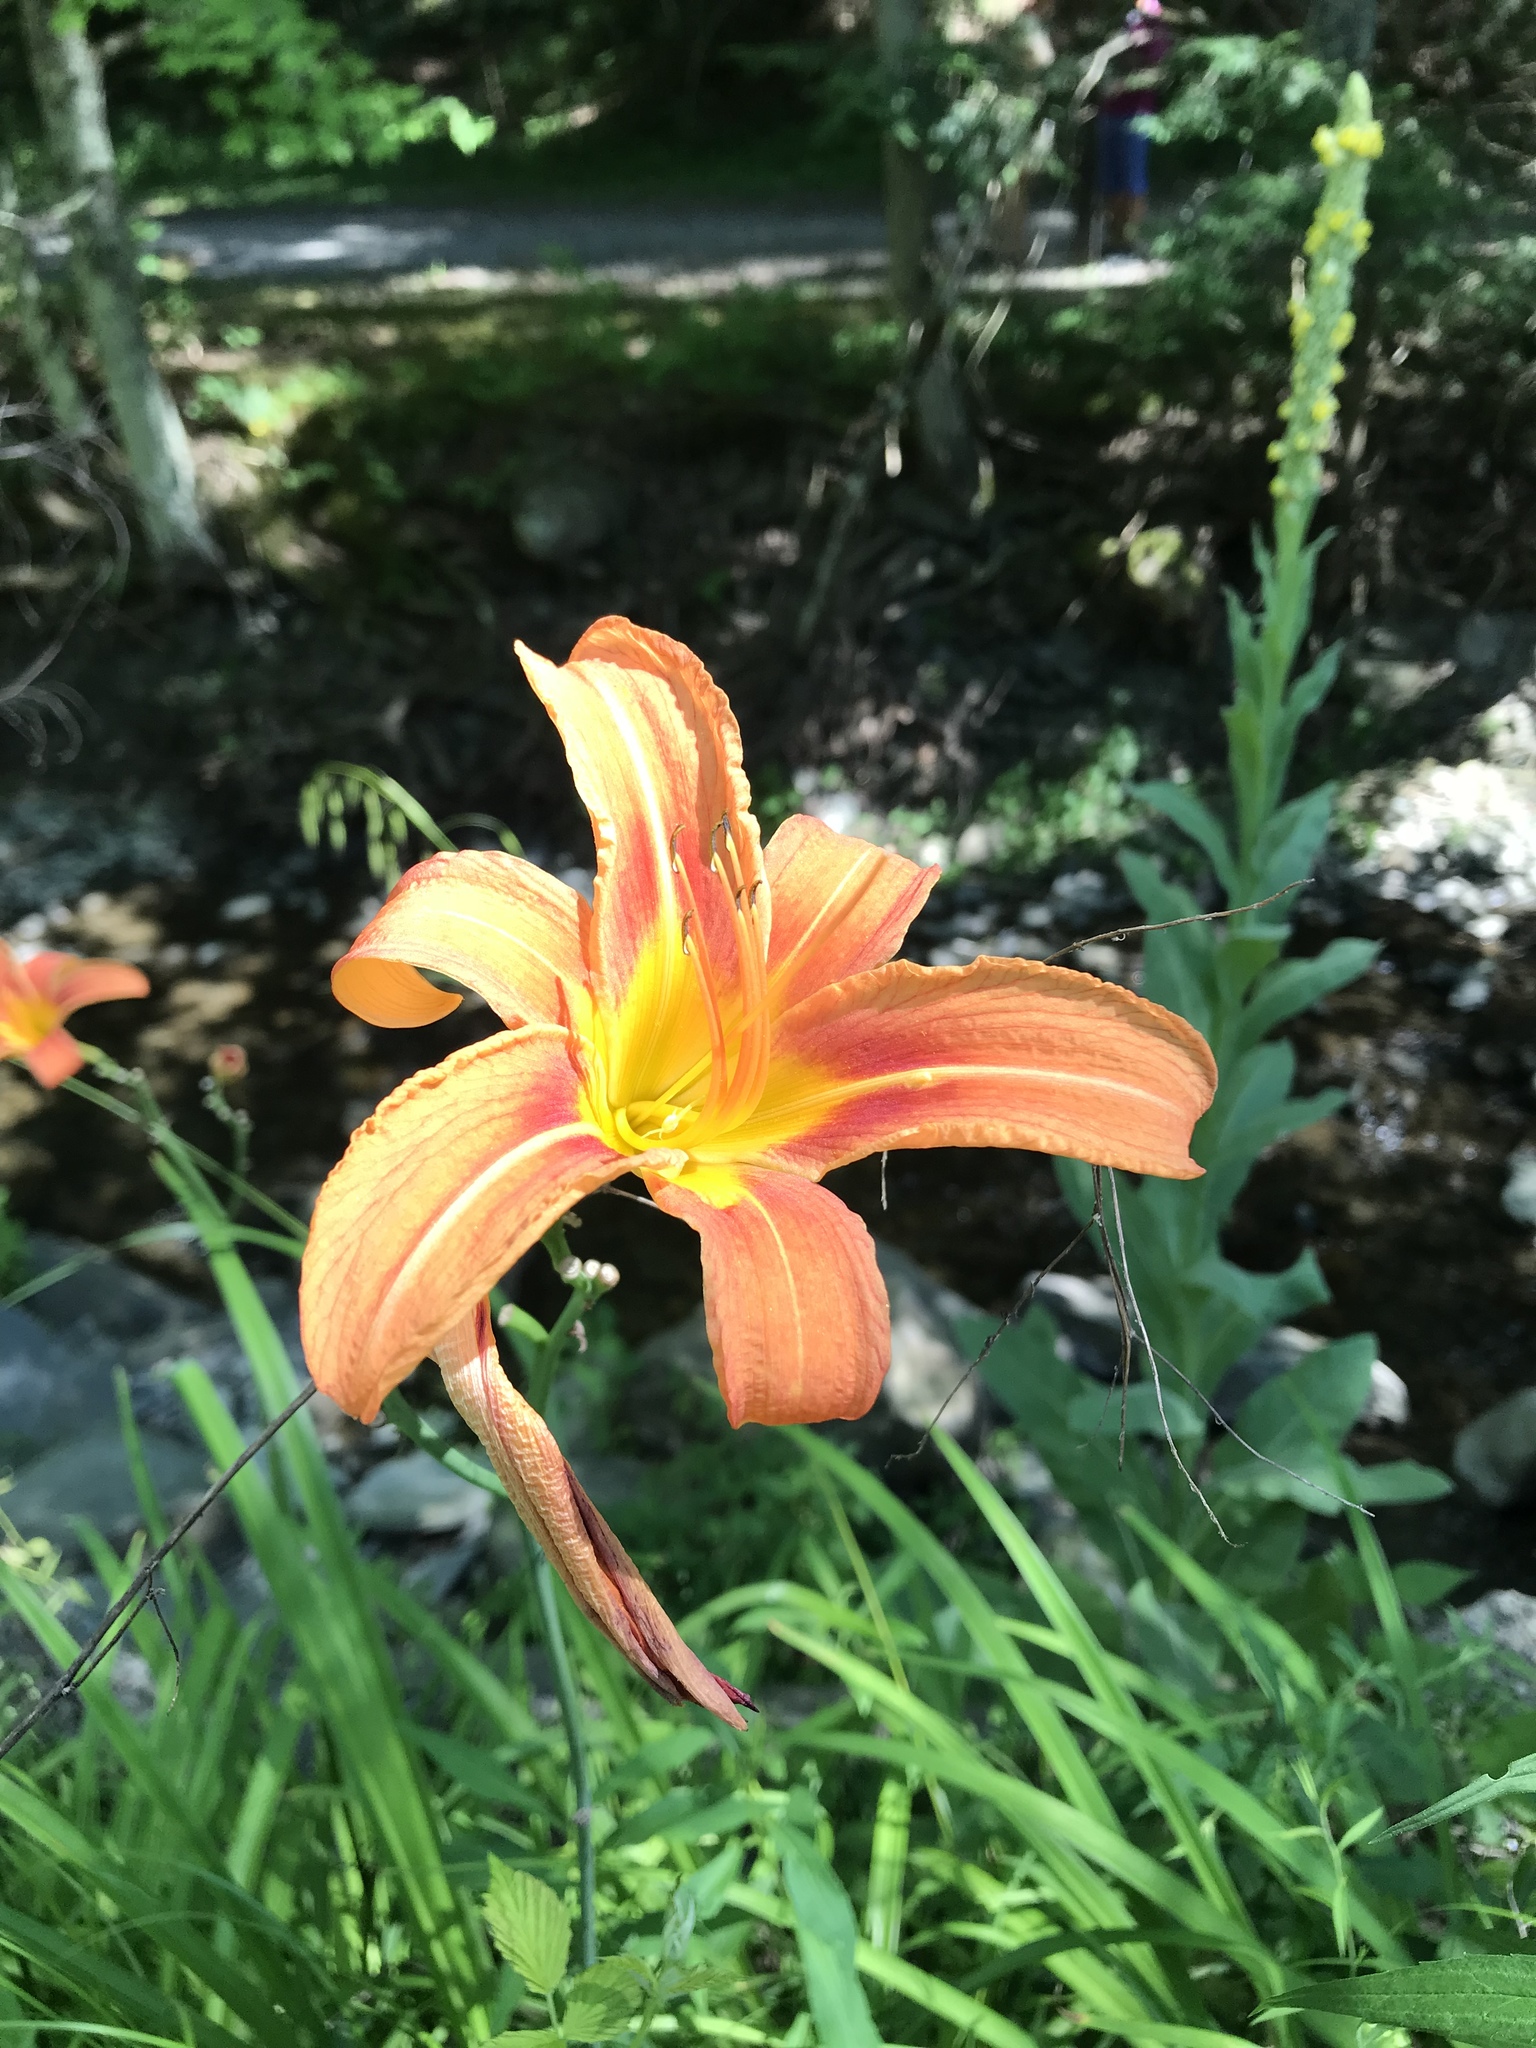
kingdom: Plantae
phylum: Tracheophyta
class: Liliopsida
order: Asparagales
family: Asphodelaceae
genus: Hemerocallis
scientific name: Hemerocallis fulva
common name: Orange day-lily
